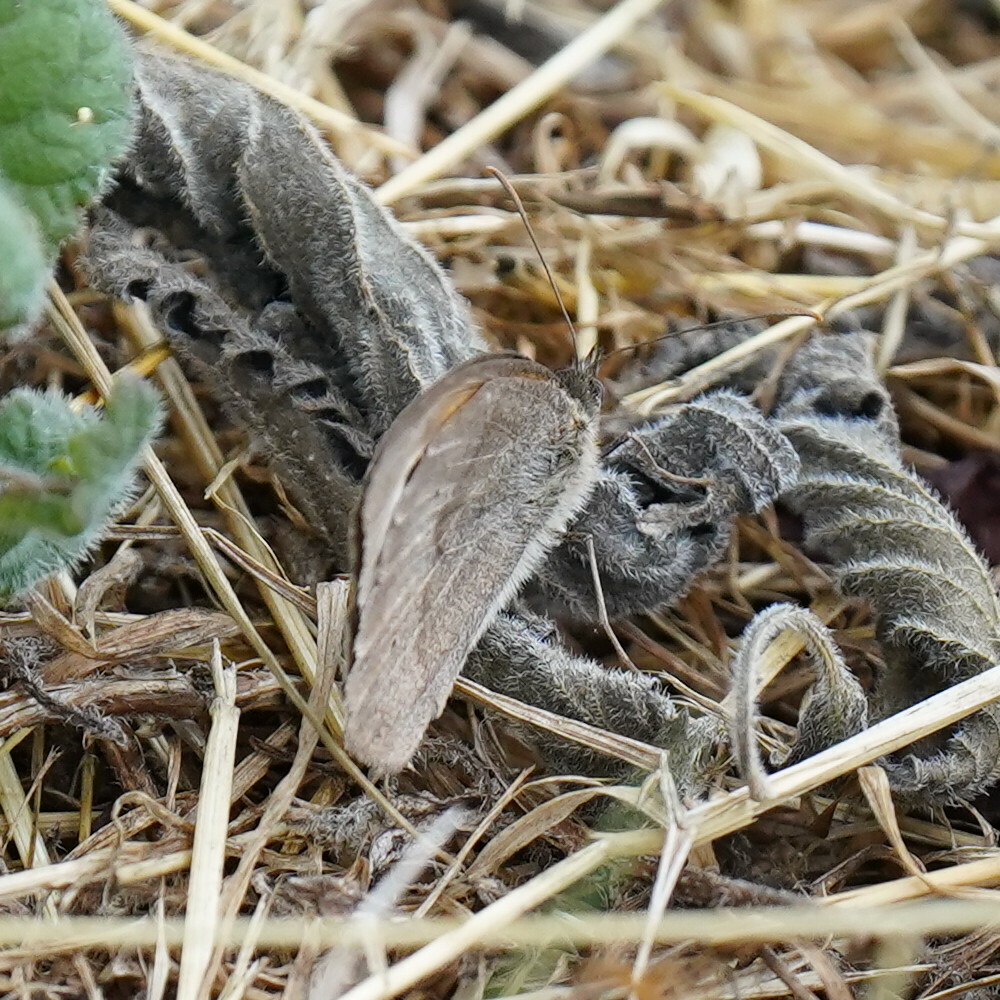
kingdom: Animalia
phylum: Arthropoda
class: Insecta
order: Lepidoptera
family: Nymphalidae
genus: Maniola
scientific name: Maniola jurtina
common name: Meadow brown
